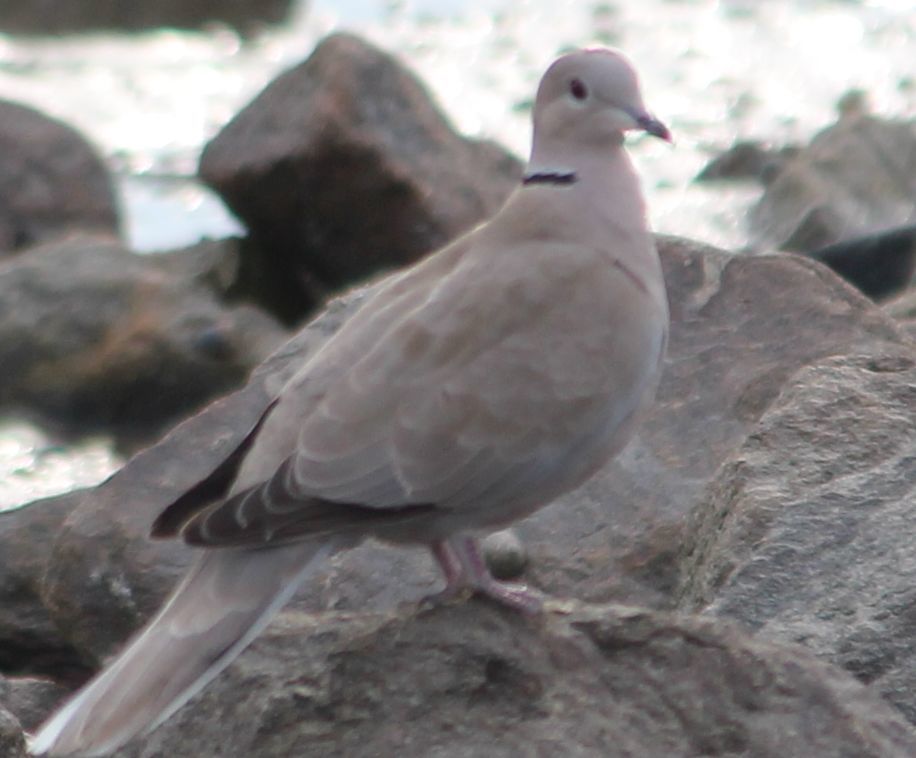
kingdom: Animalia
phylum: Chordata
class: Aves
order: Columbiformes
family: Columbidae
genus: Streptopelia
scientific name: Streptopelia decaocto
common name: Eurasian collared dove
